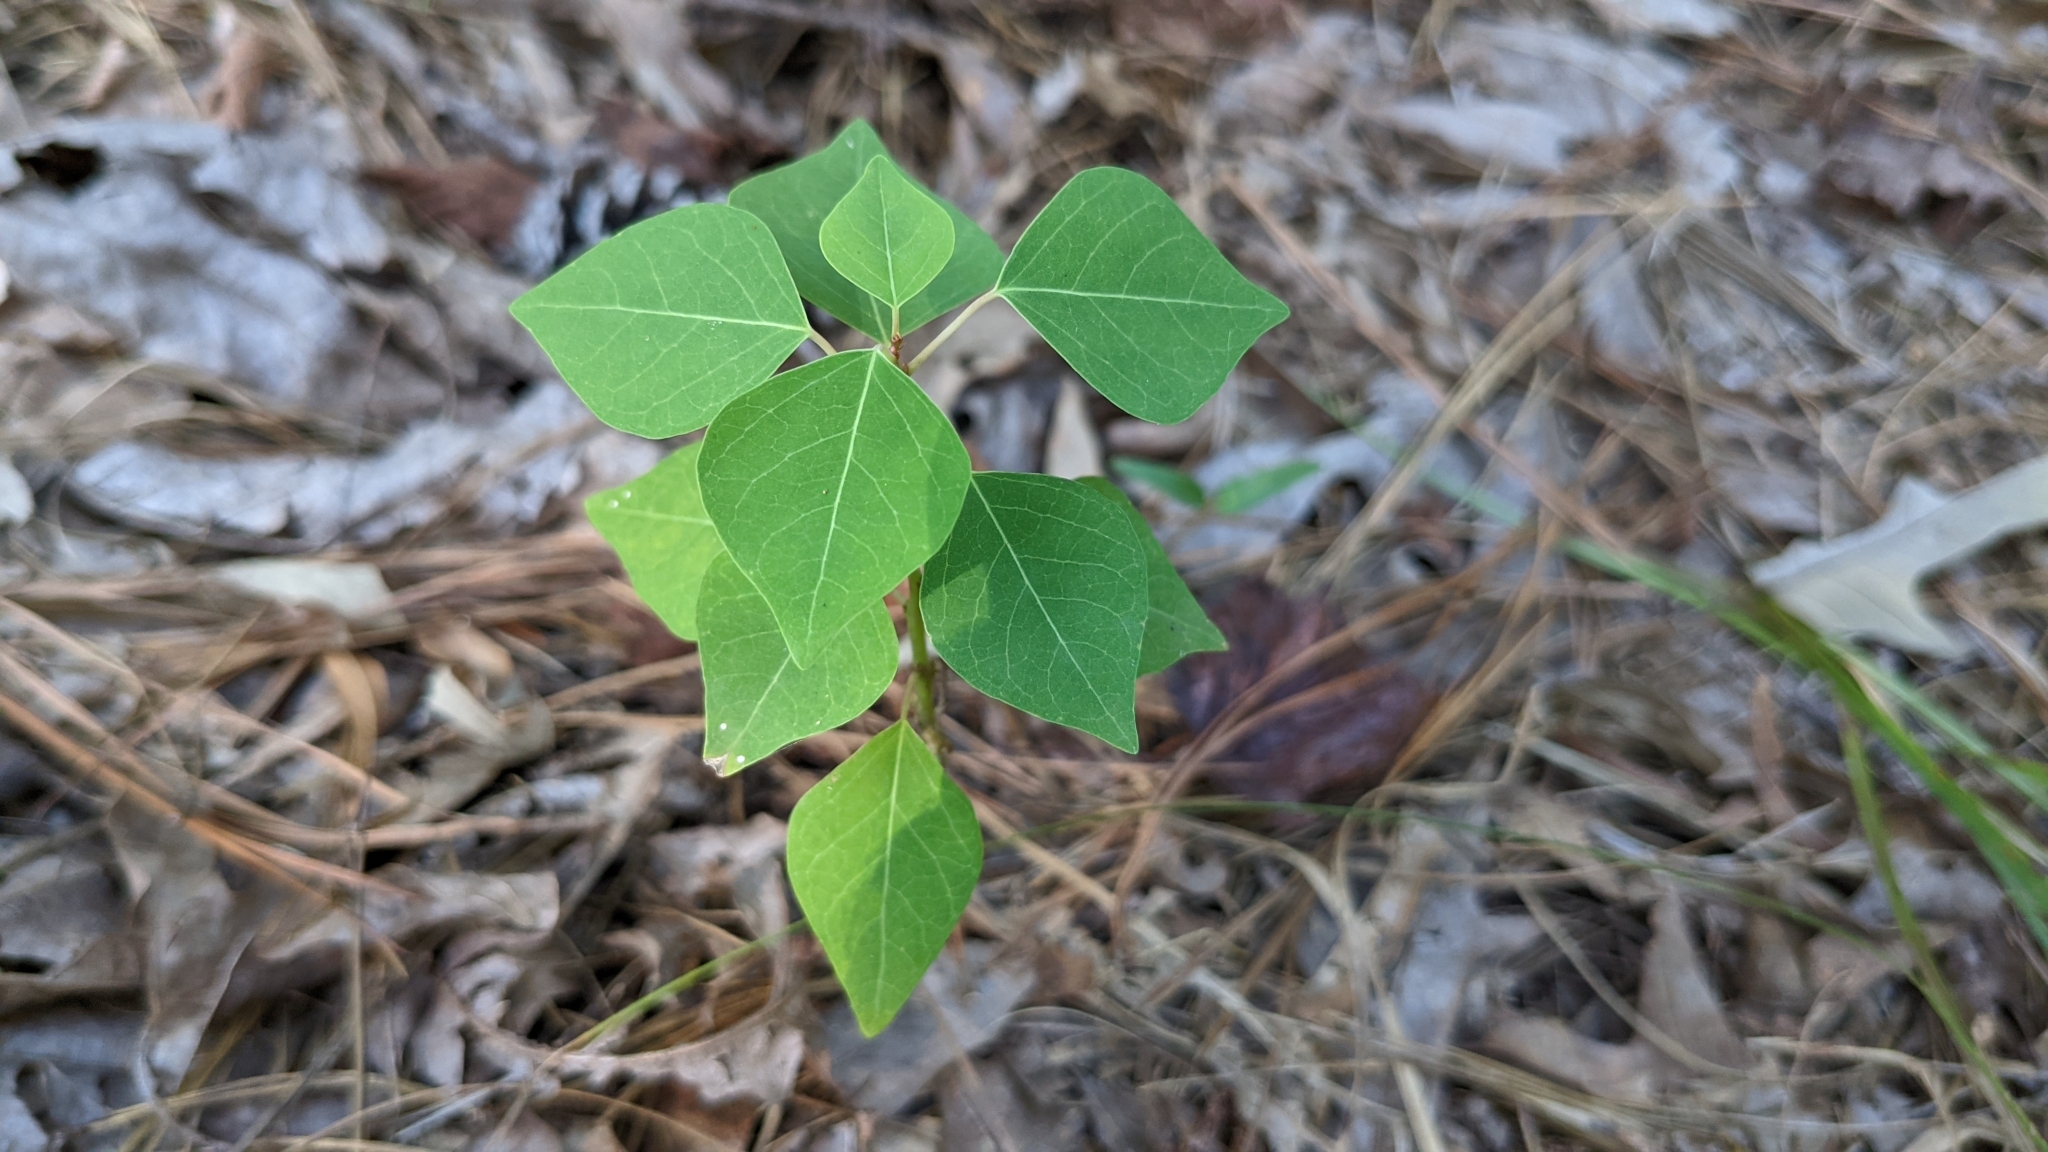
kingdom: Plantae
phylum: Tracheophyta
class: Magnoliopsida
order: Malpighiales
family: Euphorbiaceae
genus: Triadica
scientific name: Triadica sebifera
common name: Chinese tallow
